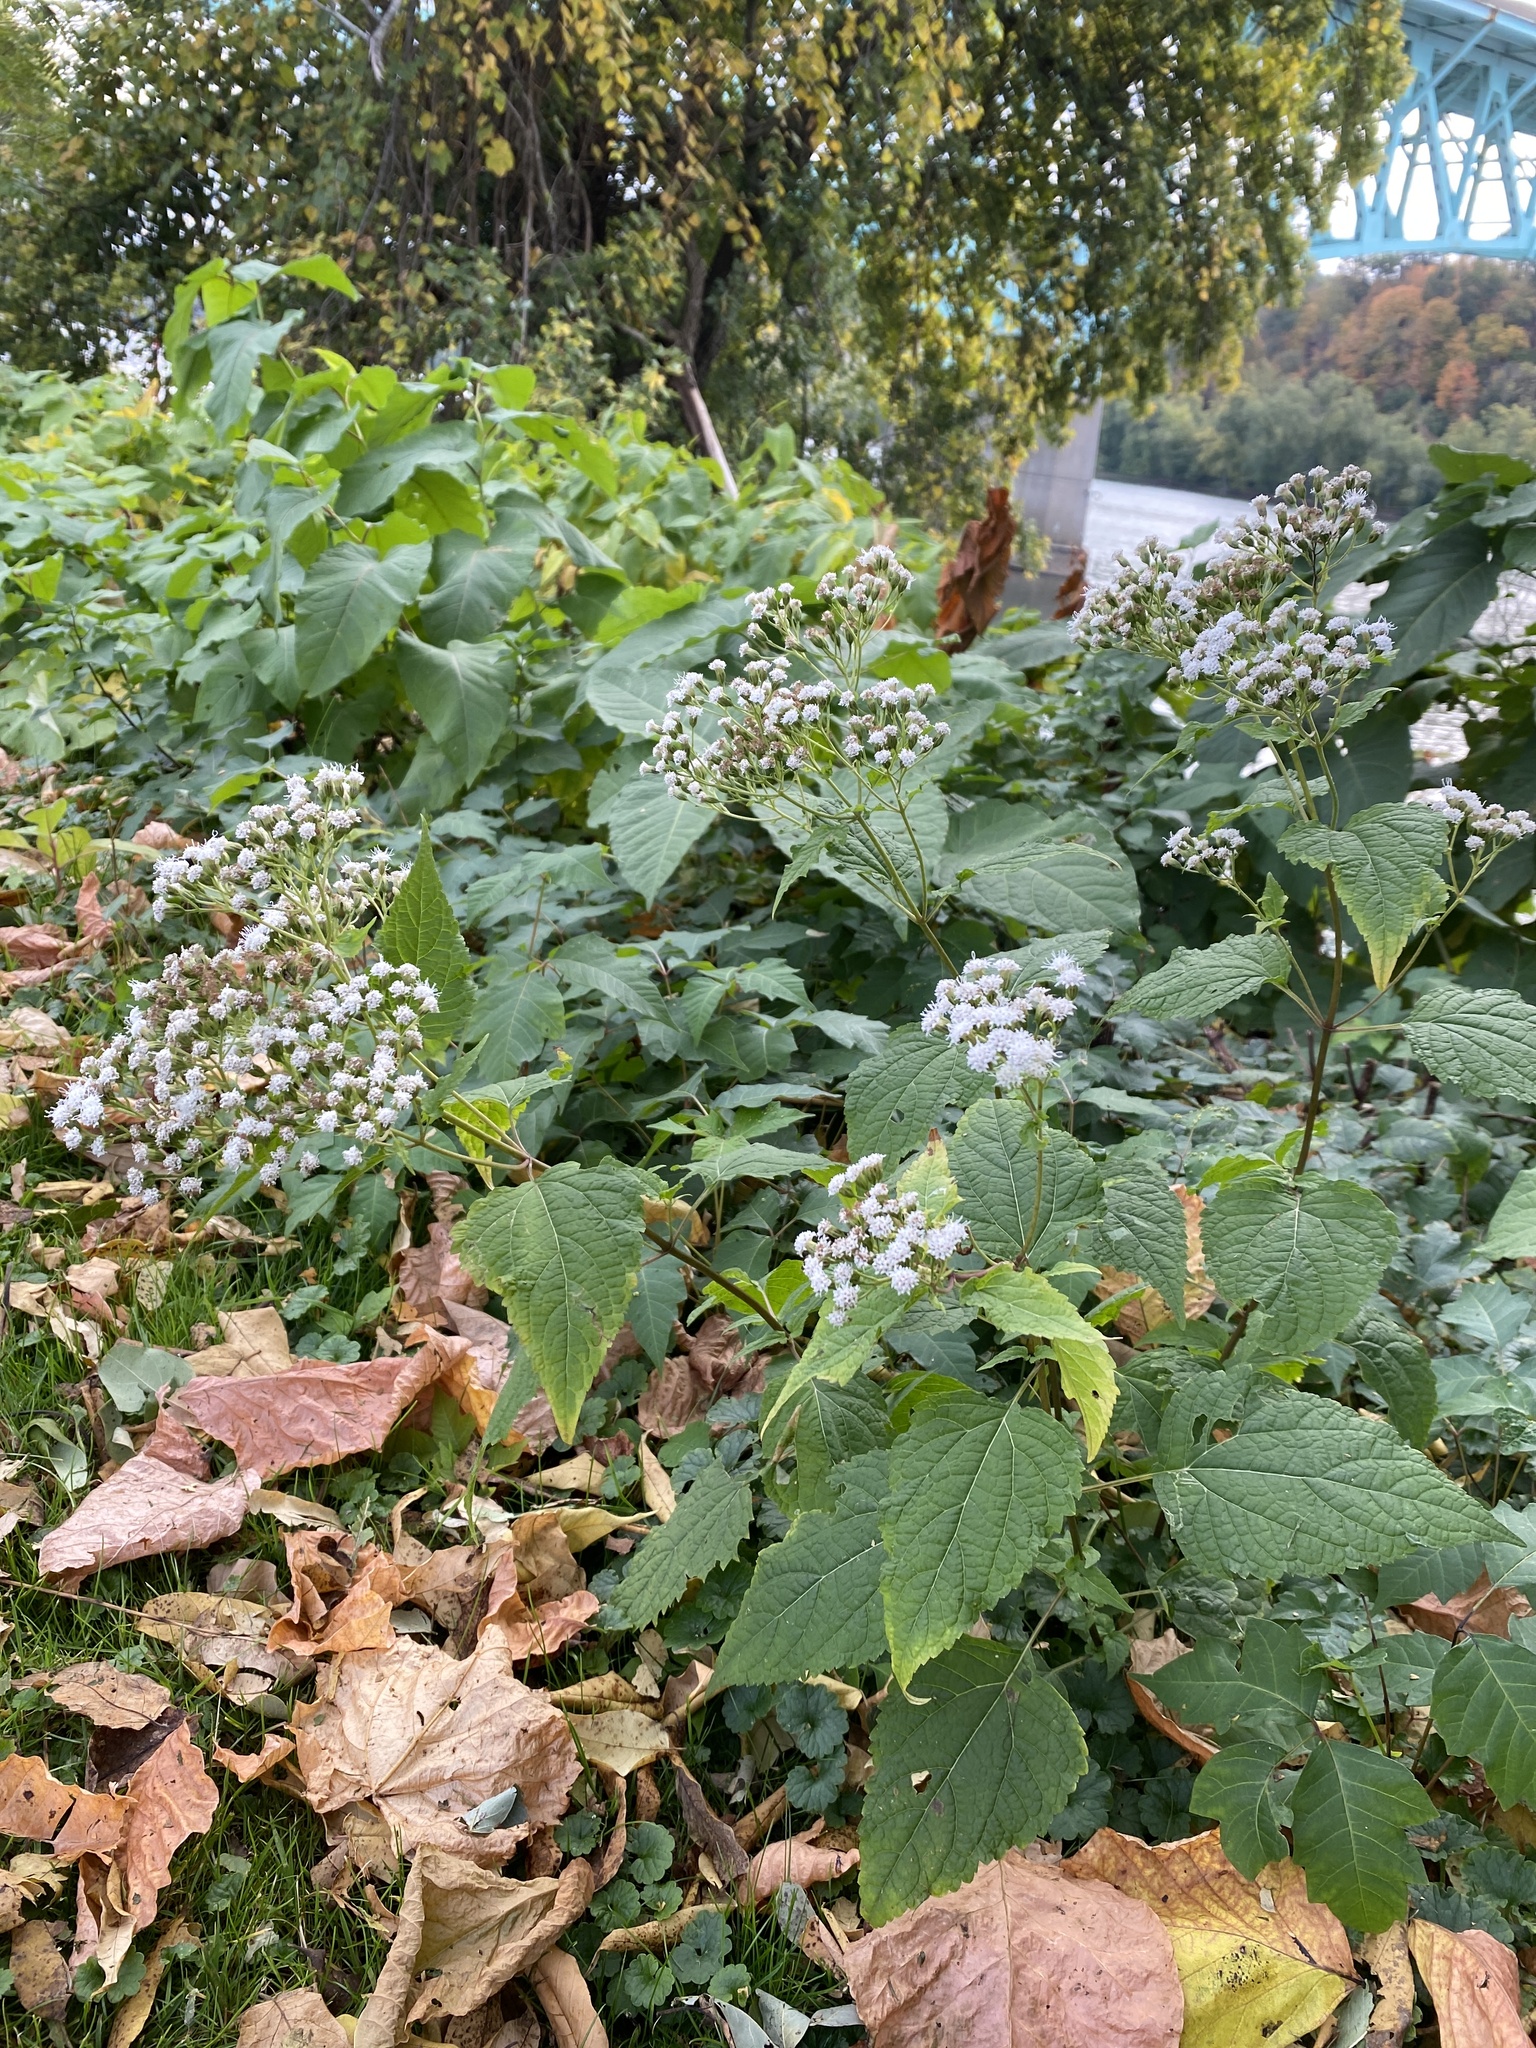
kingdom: Plantae
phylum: Tracheophyta
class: Magnoliopsida
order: Asterales
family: Asteraceae
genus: Ageratina
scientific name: Ageratina altissima
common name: White snakeroot
